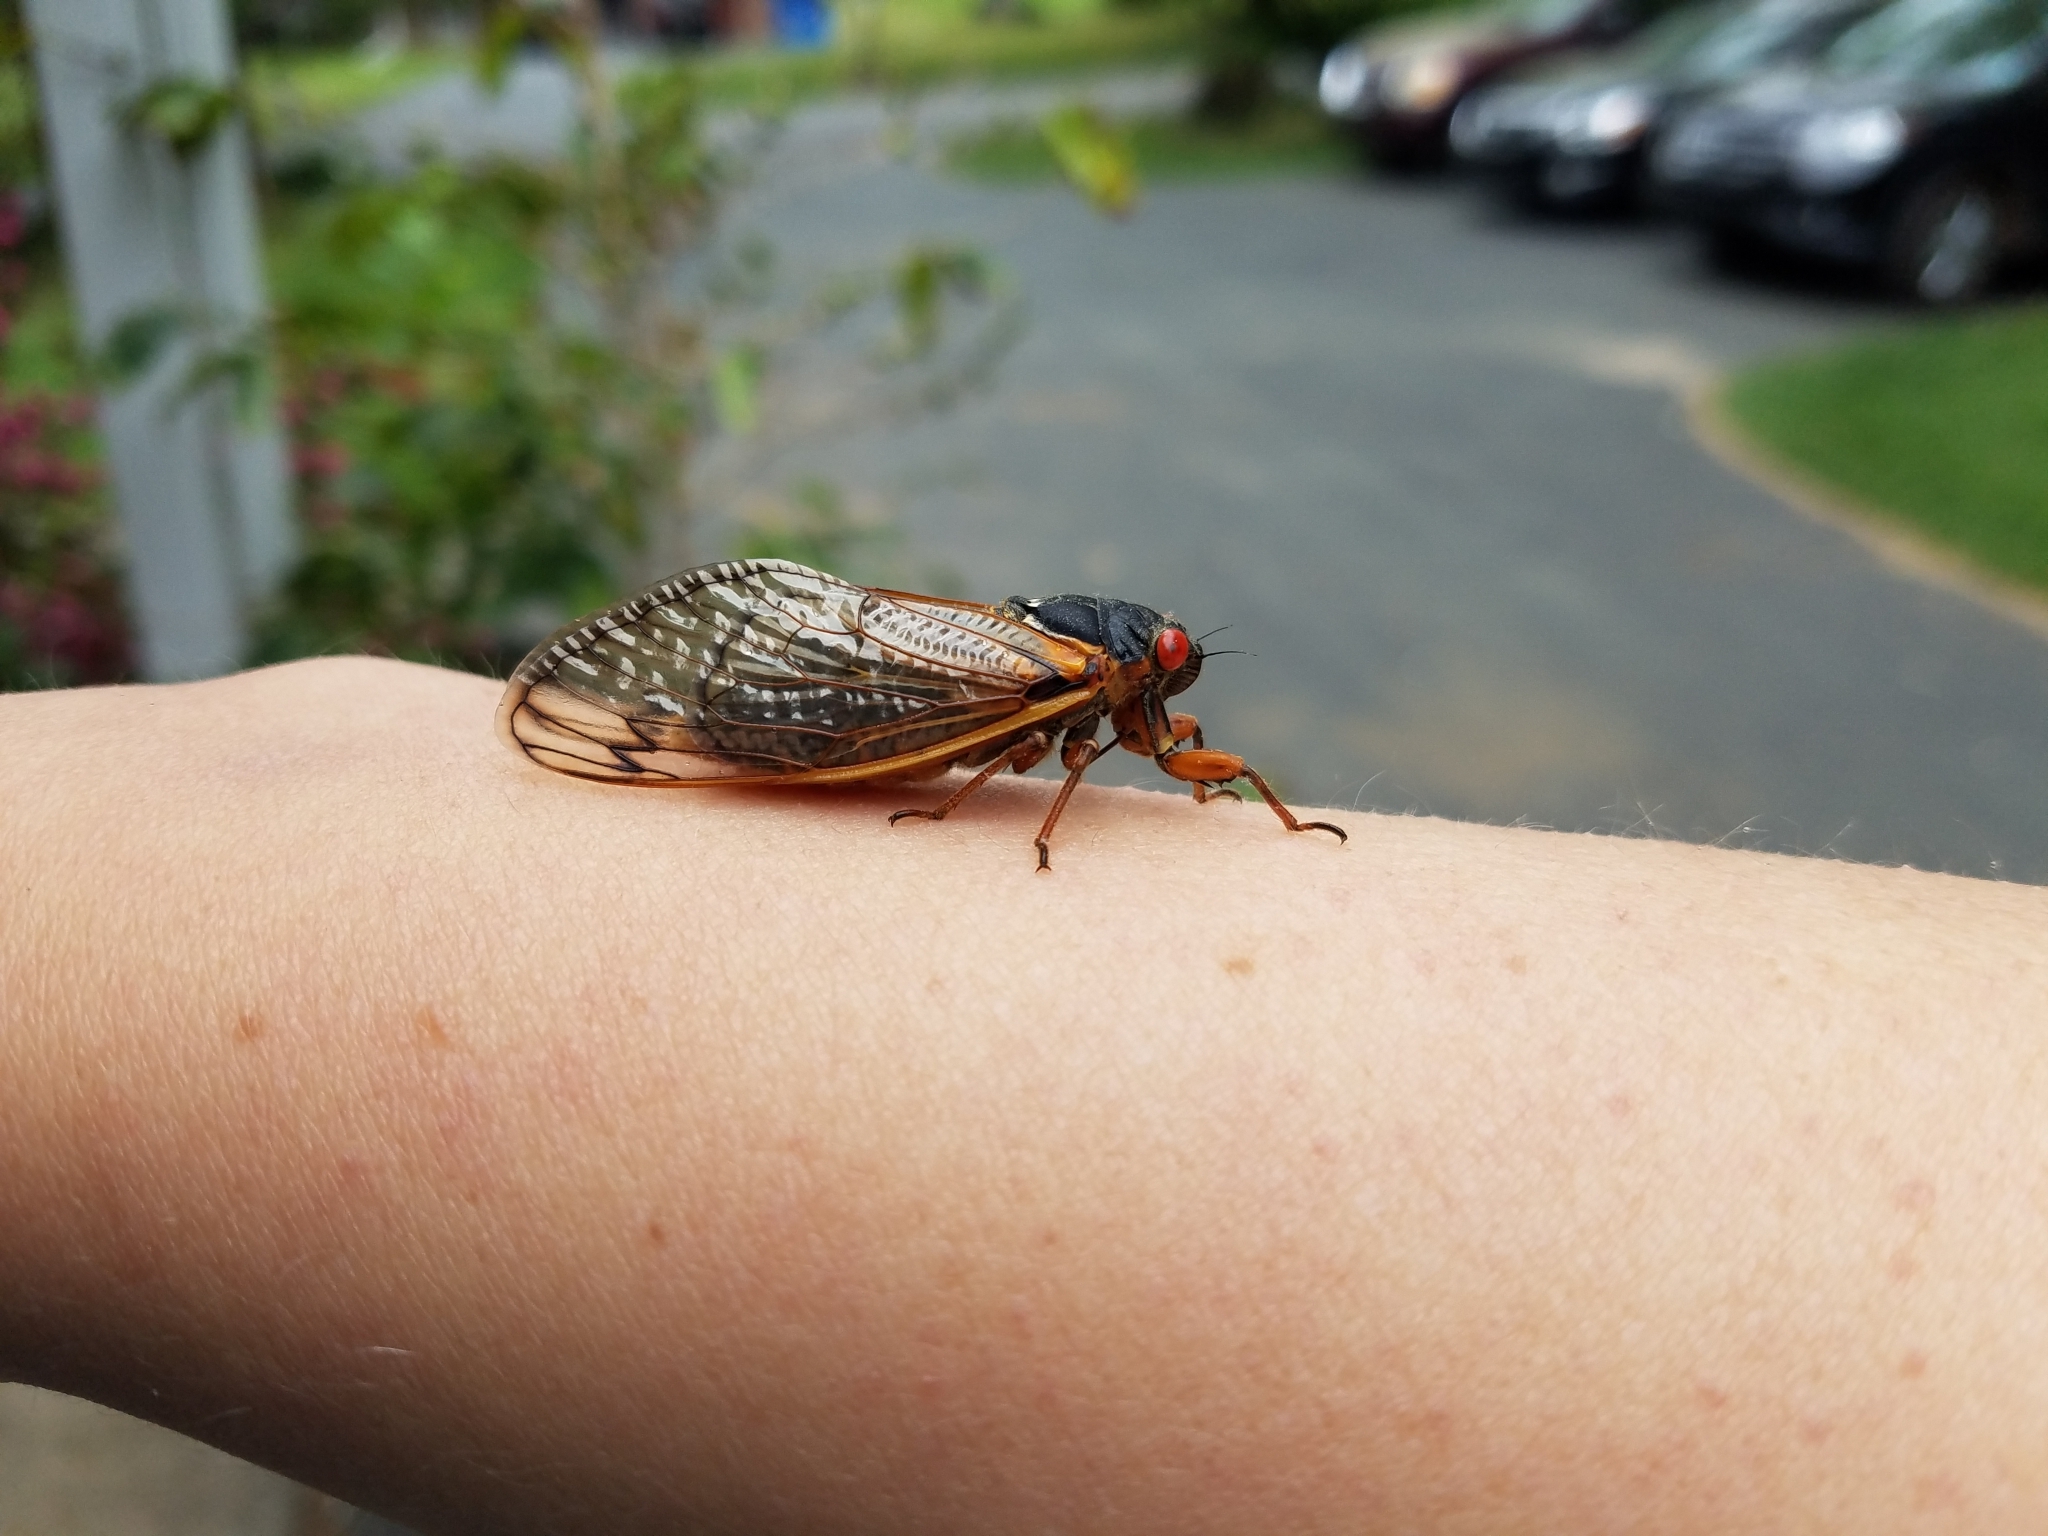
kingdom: Animalia
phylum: Arthropoda
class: Insecta
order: Hemiptera
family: Cicadidae
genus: Magicicada
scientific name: Magicicada septendecim
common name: Periodical cicada
